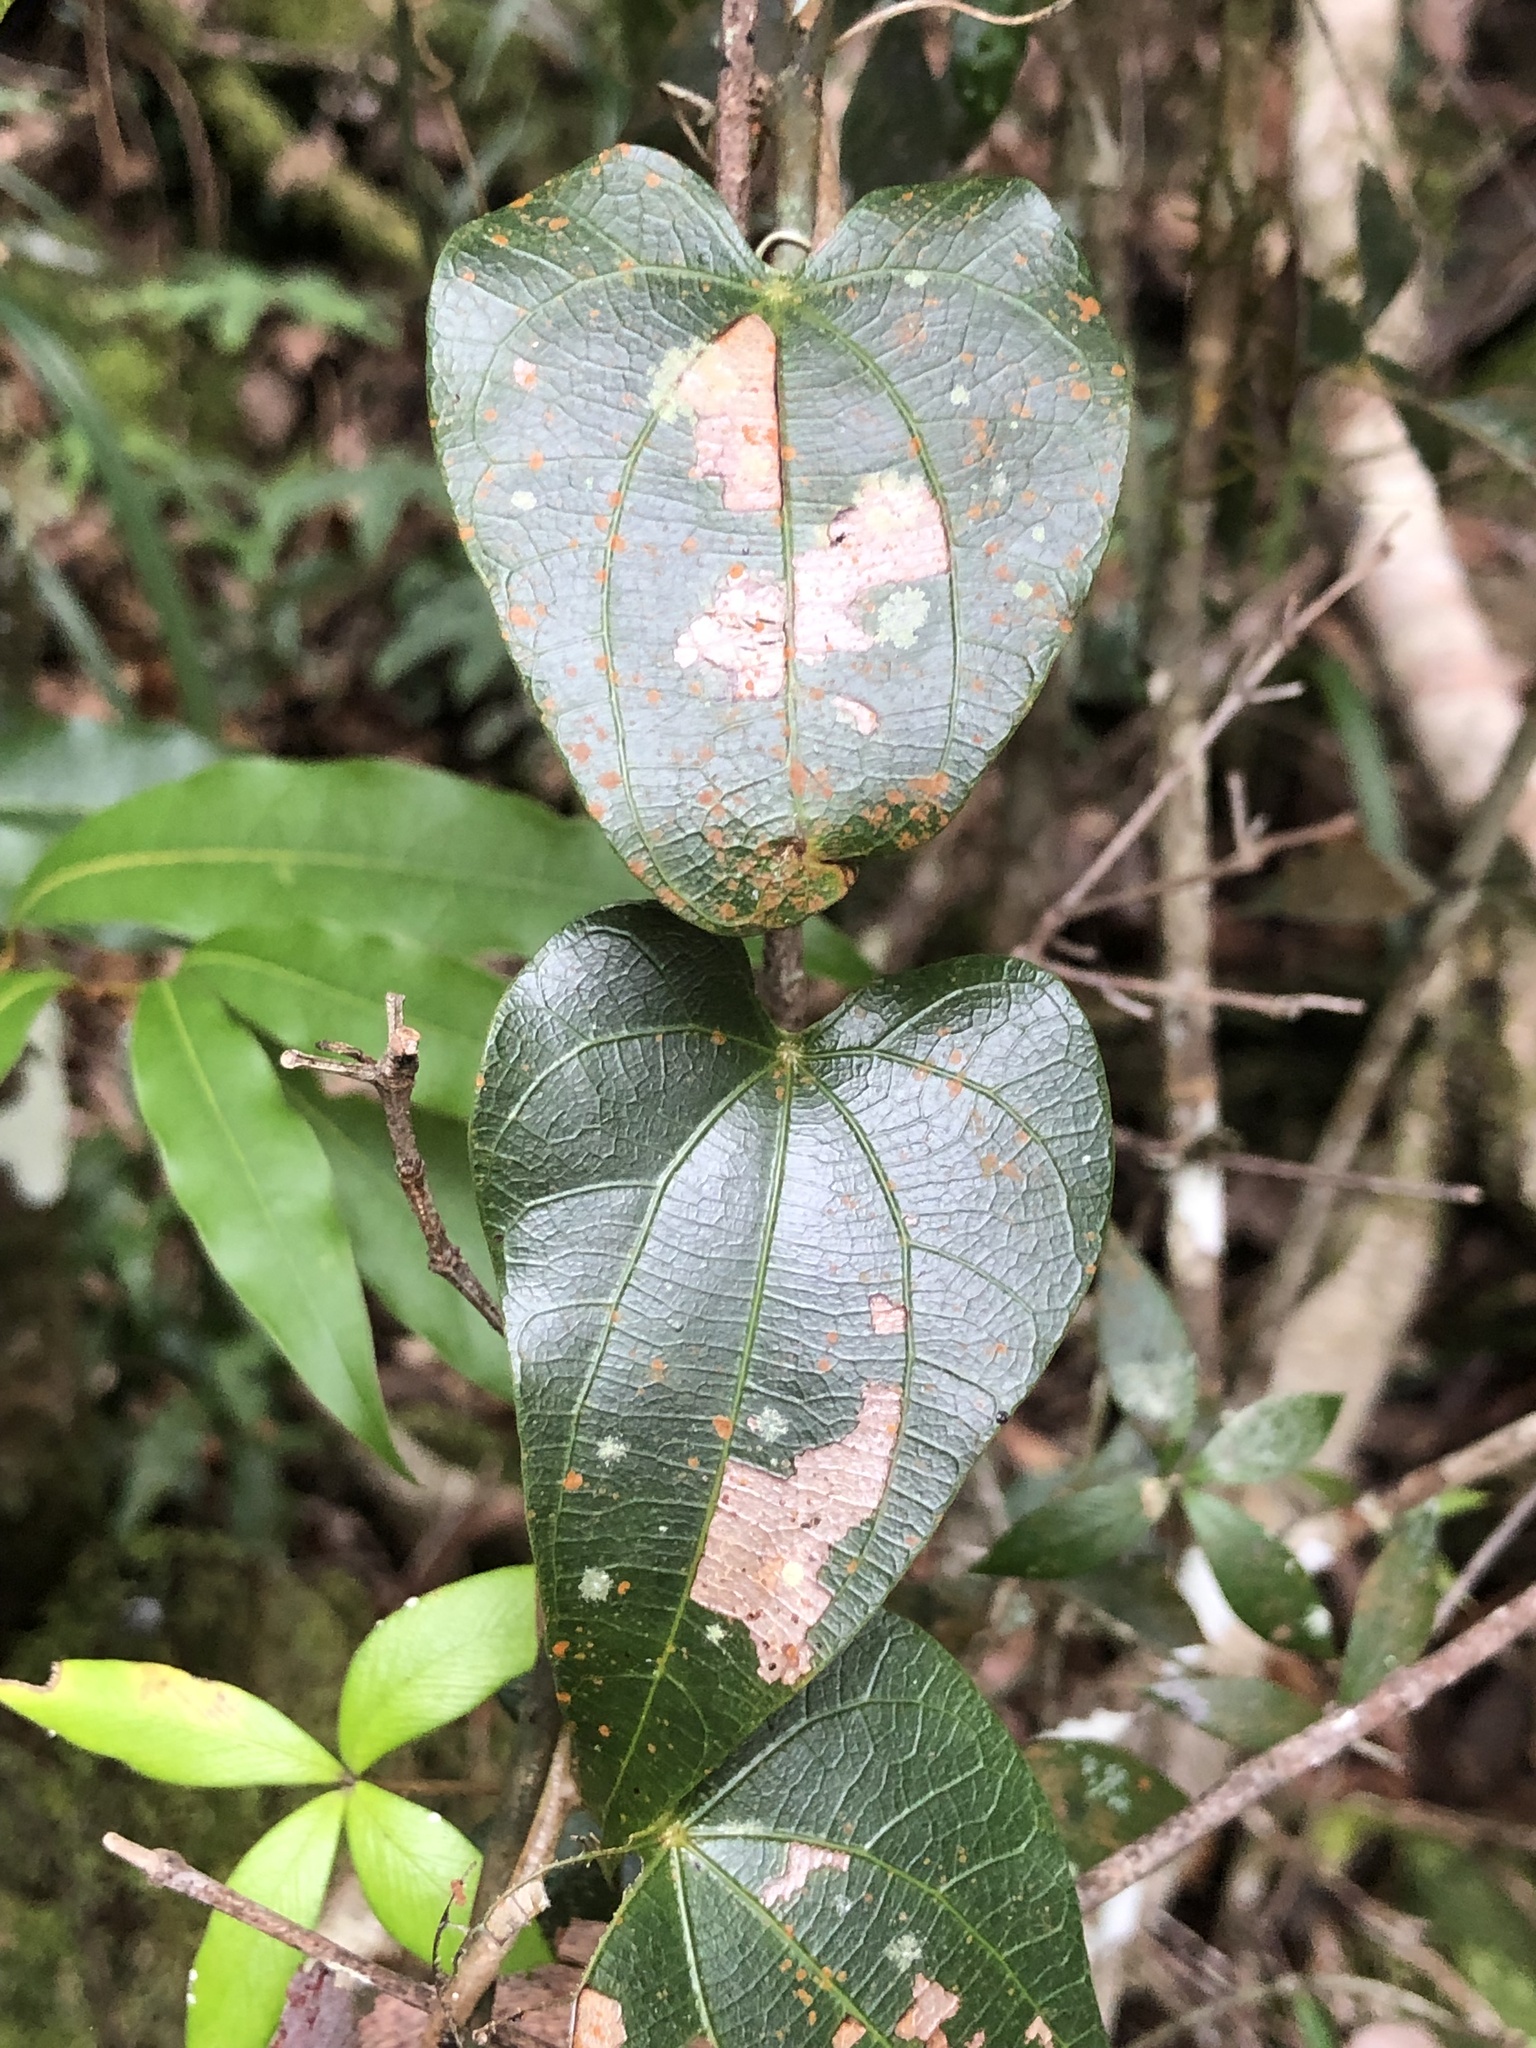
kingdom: Plantae
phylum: Tracheophyta
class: Magnoliopsida
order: Ranunculales
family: Menispermaceae
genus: Sarcopetalum
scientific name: Sarcopetalum harveyanum
